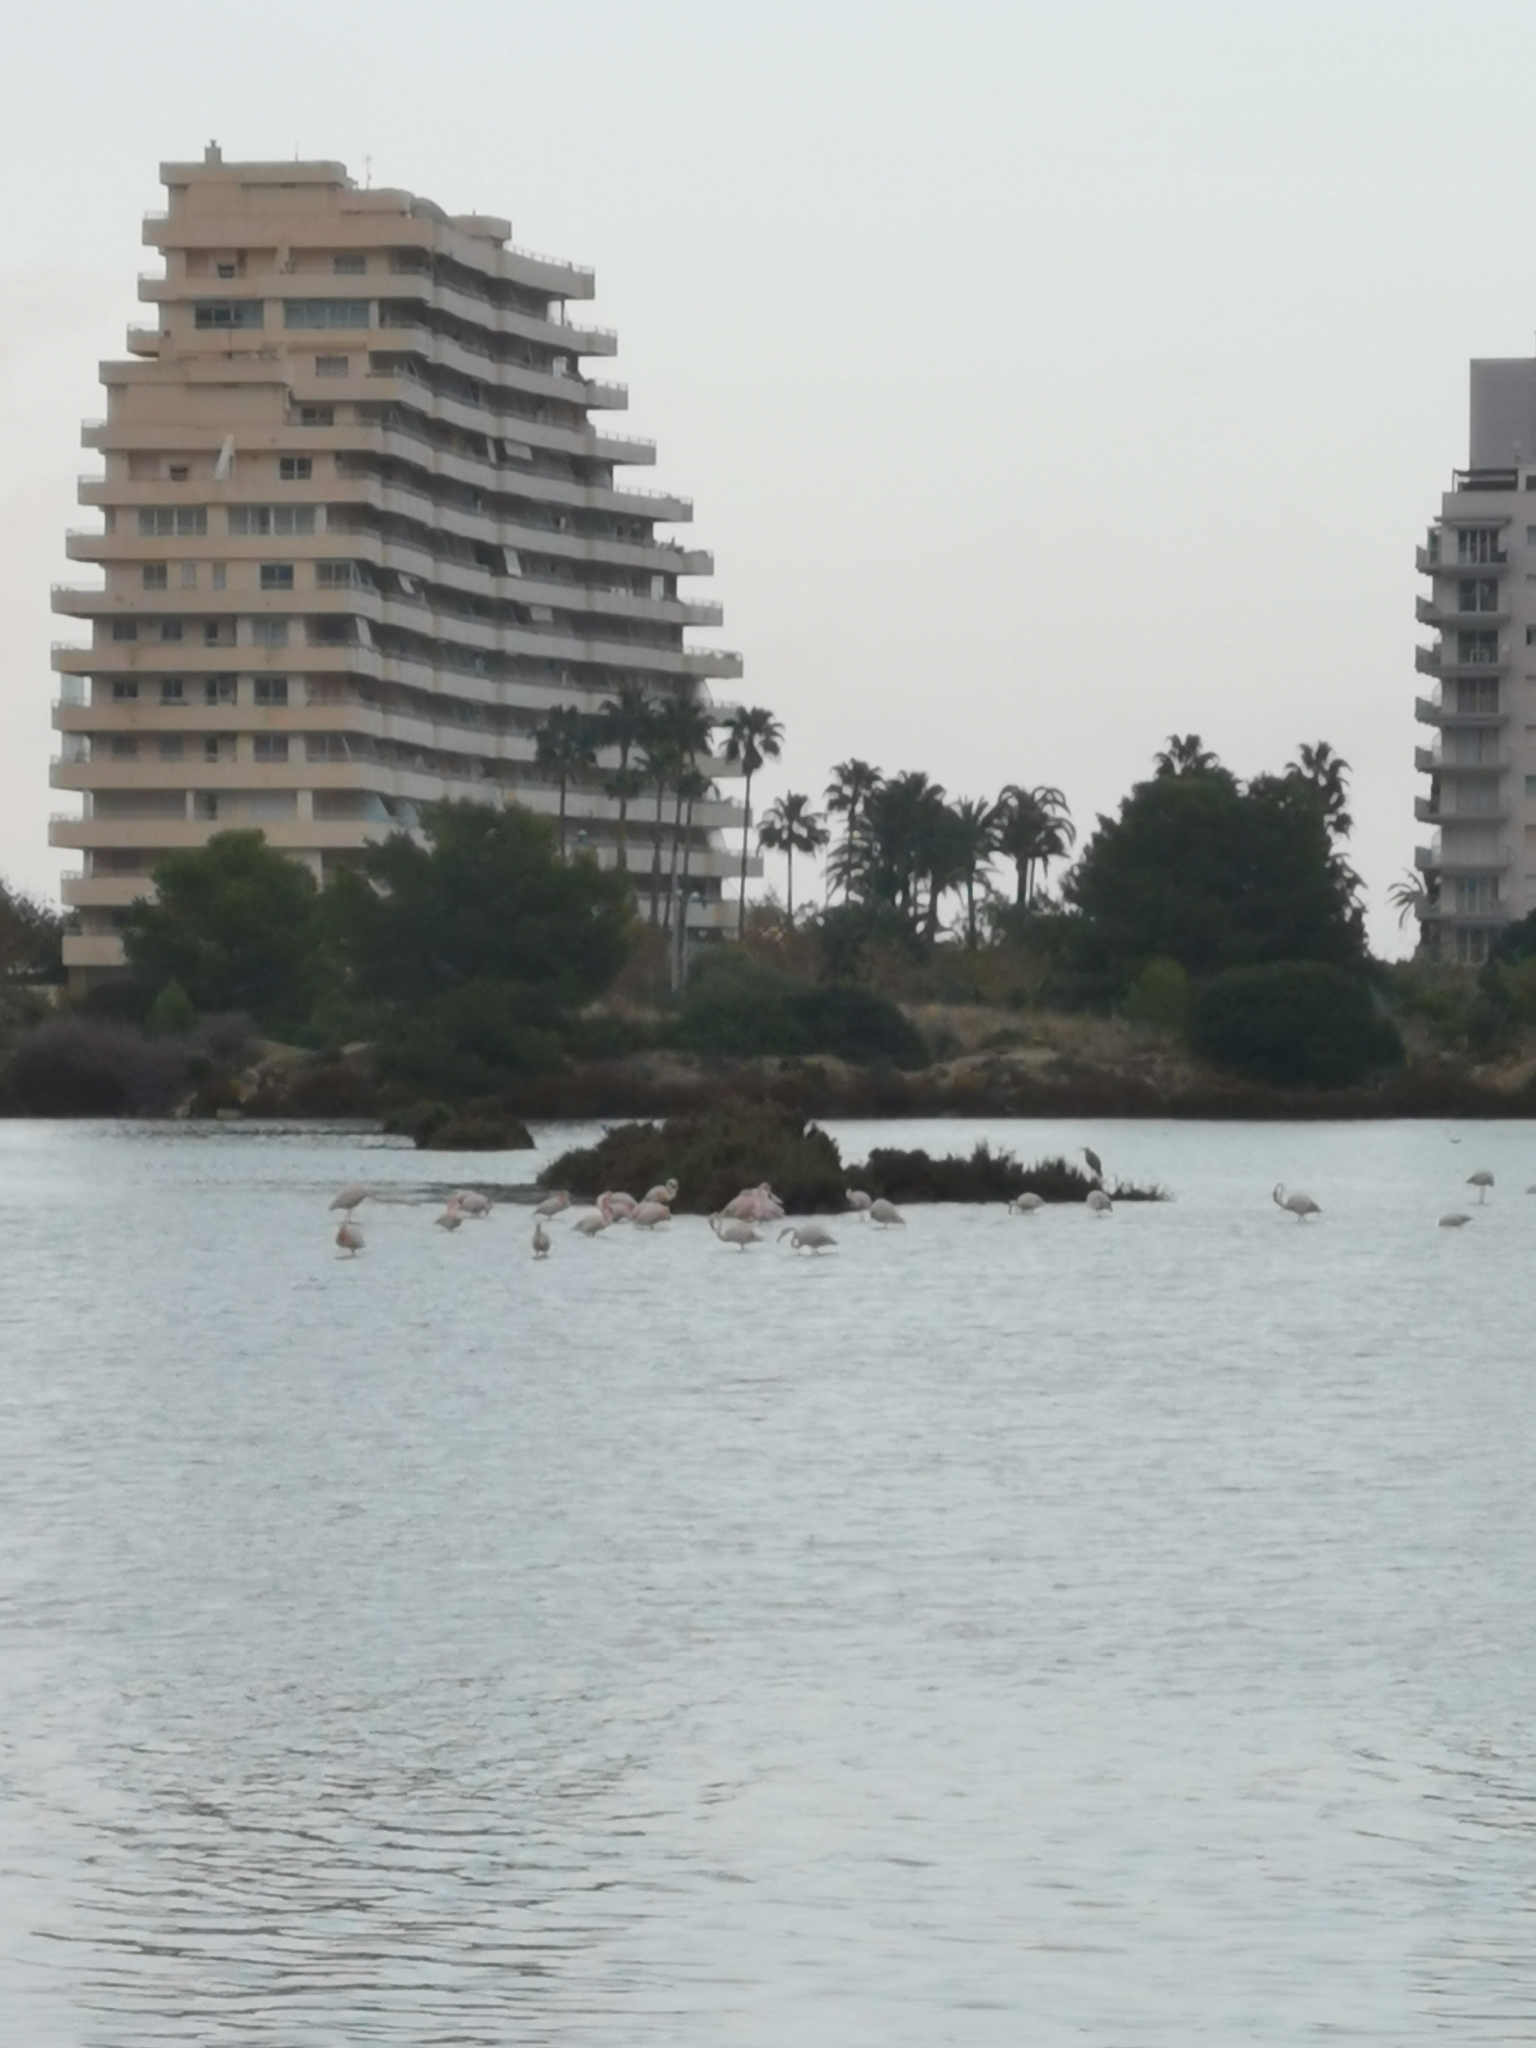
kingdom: Animalia
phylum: Chordata
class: Aves
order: Phoenicopteriformes
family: Phoenicopteridae
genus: Phoenicopterus
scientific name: Phoenicopterus roseus
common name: Greater flamingo
